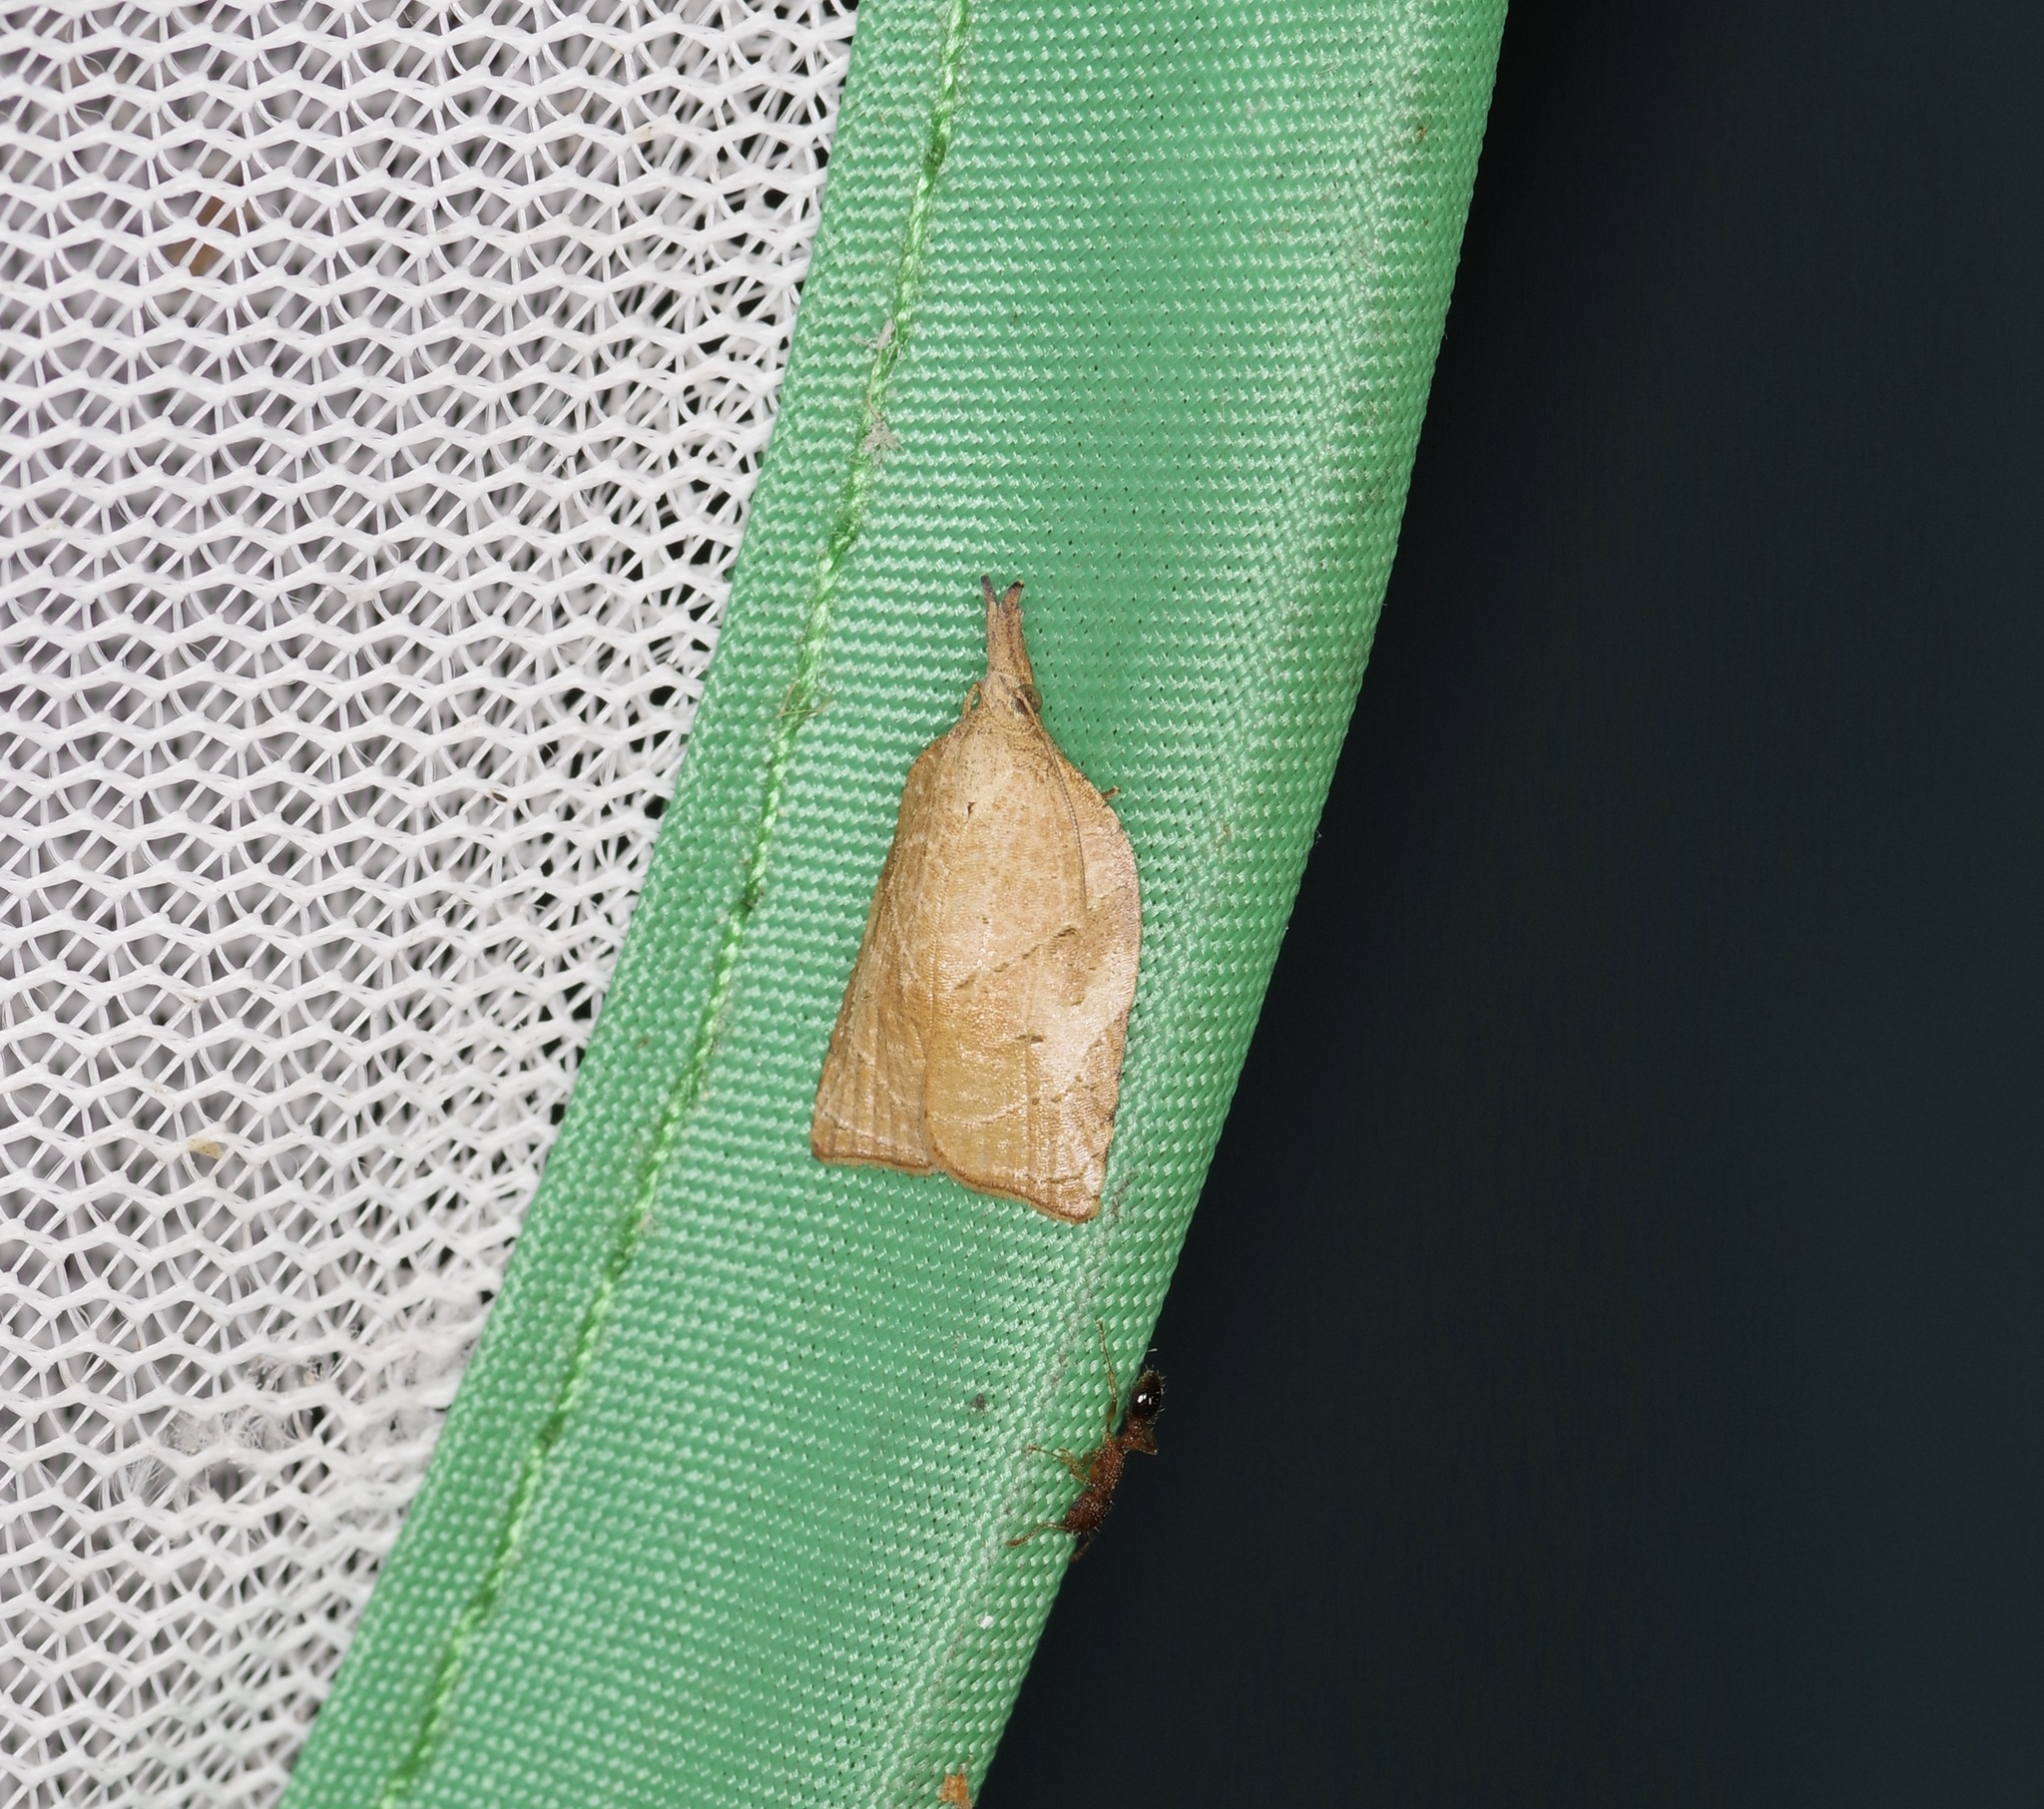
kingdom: Animalia
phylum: Arthropoda
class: Insecta
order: Lepidoptera
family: Tortricidae
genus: Platynota
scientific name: Platynota rostrana
